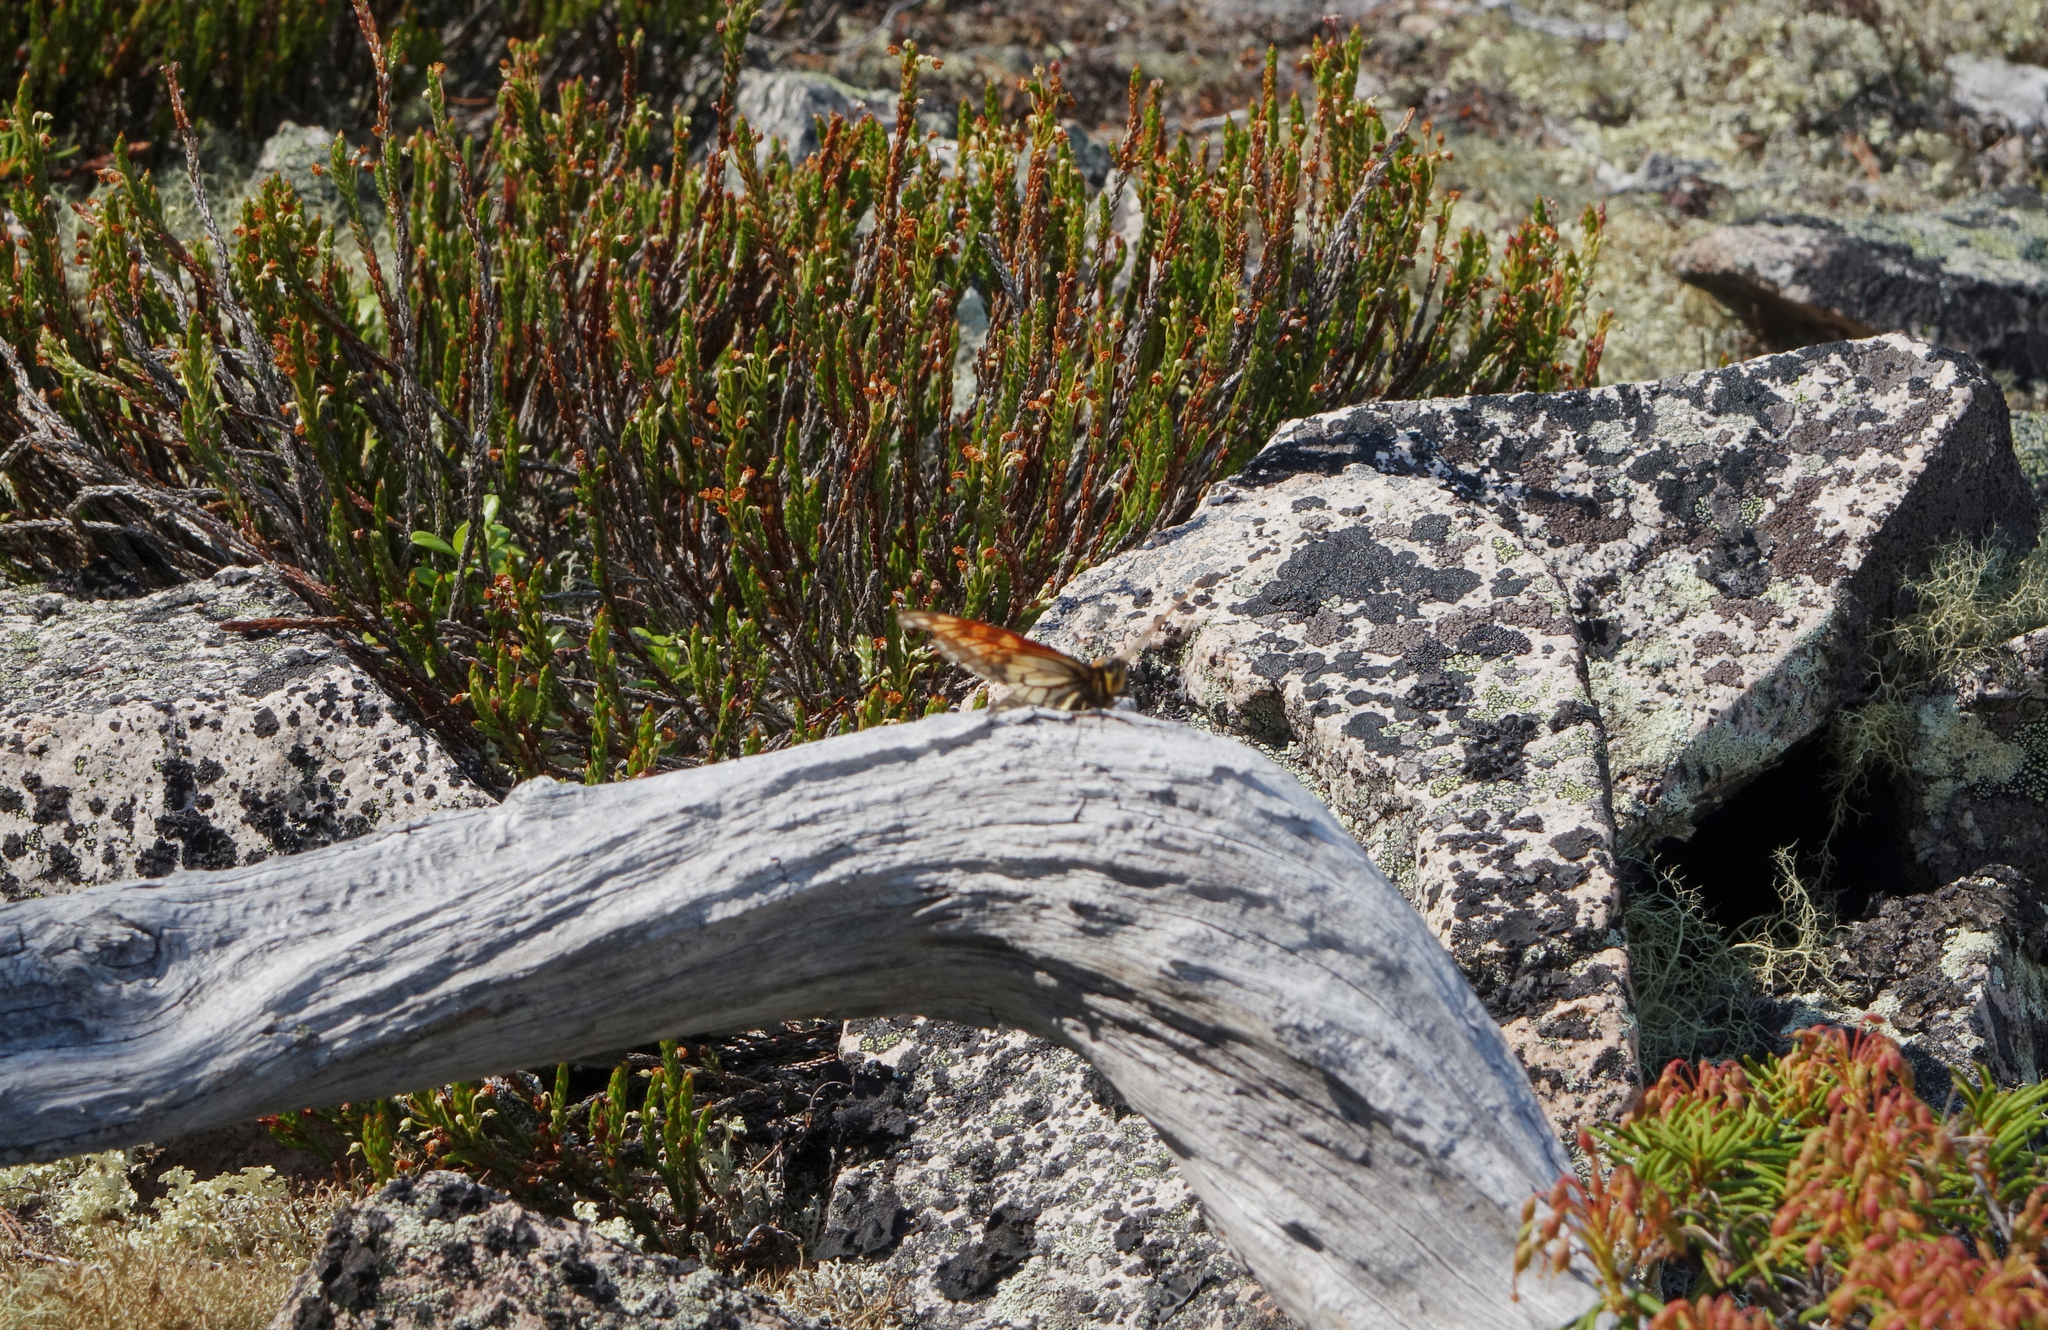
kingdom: Plantae
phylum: Tracheophyta
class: Magnoliopsida
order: Ericales
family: Ericaceae
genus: Cassiope
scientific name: Cassiope tetragona
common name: Arctic bell heather
